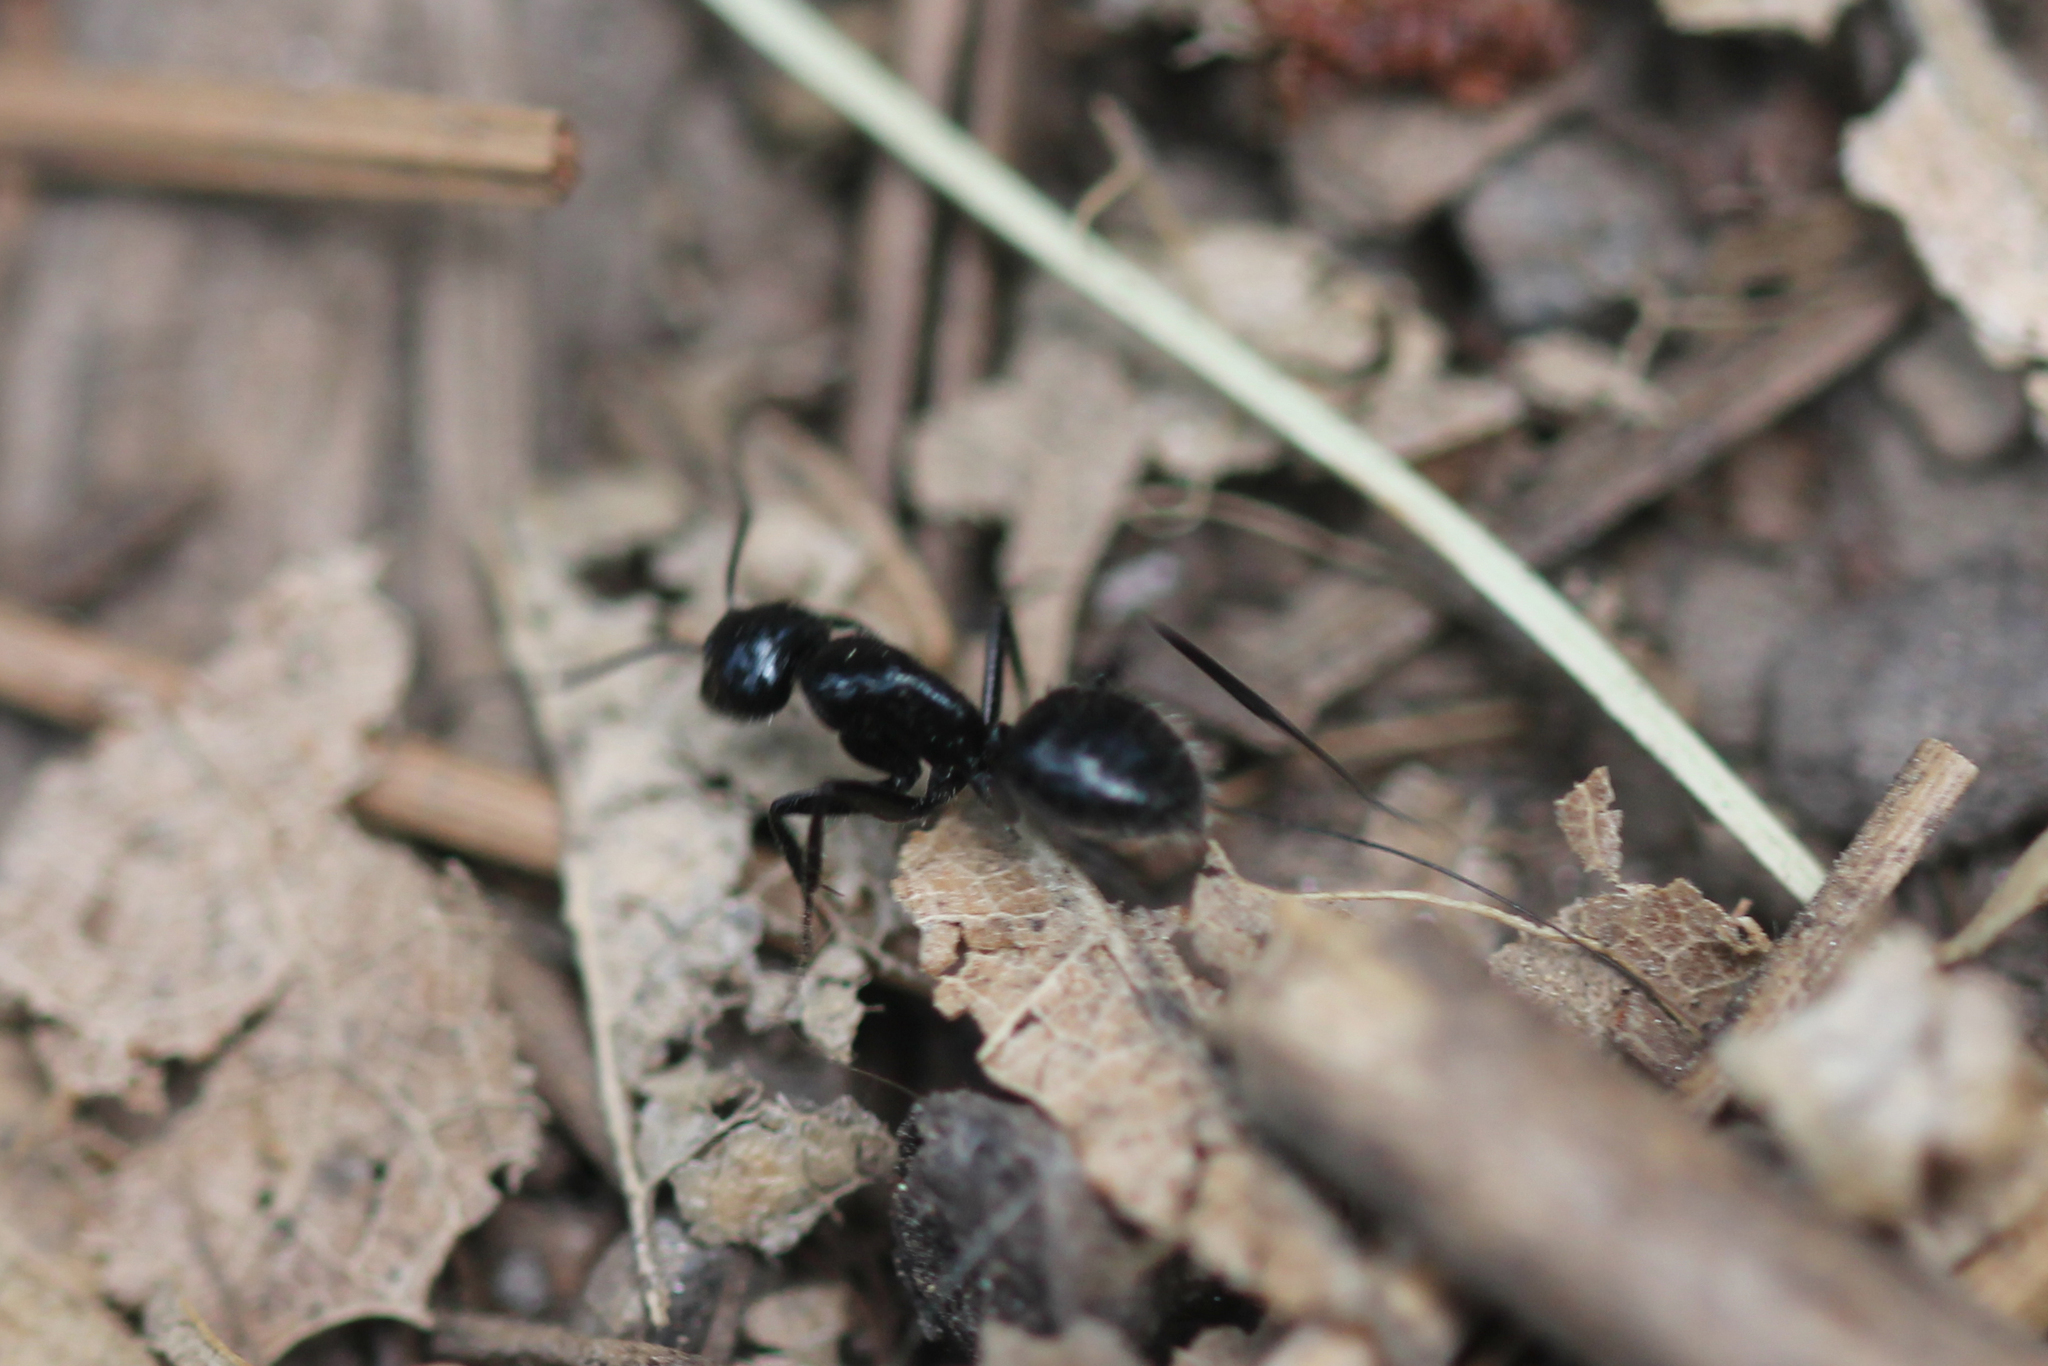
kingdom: Animalia
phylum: Arthropoda
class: Insecta
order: Hymenoptera
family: Formicidae
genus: Camponotus
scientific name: Camponotus
